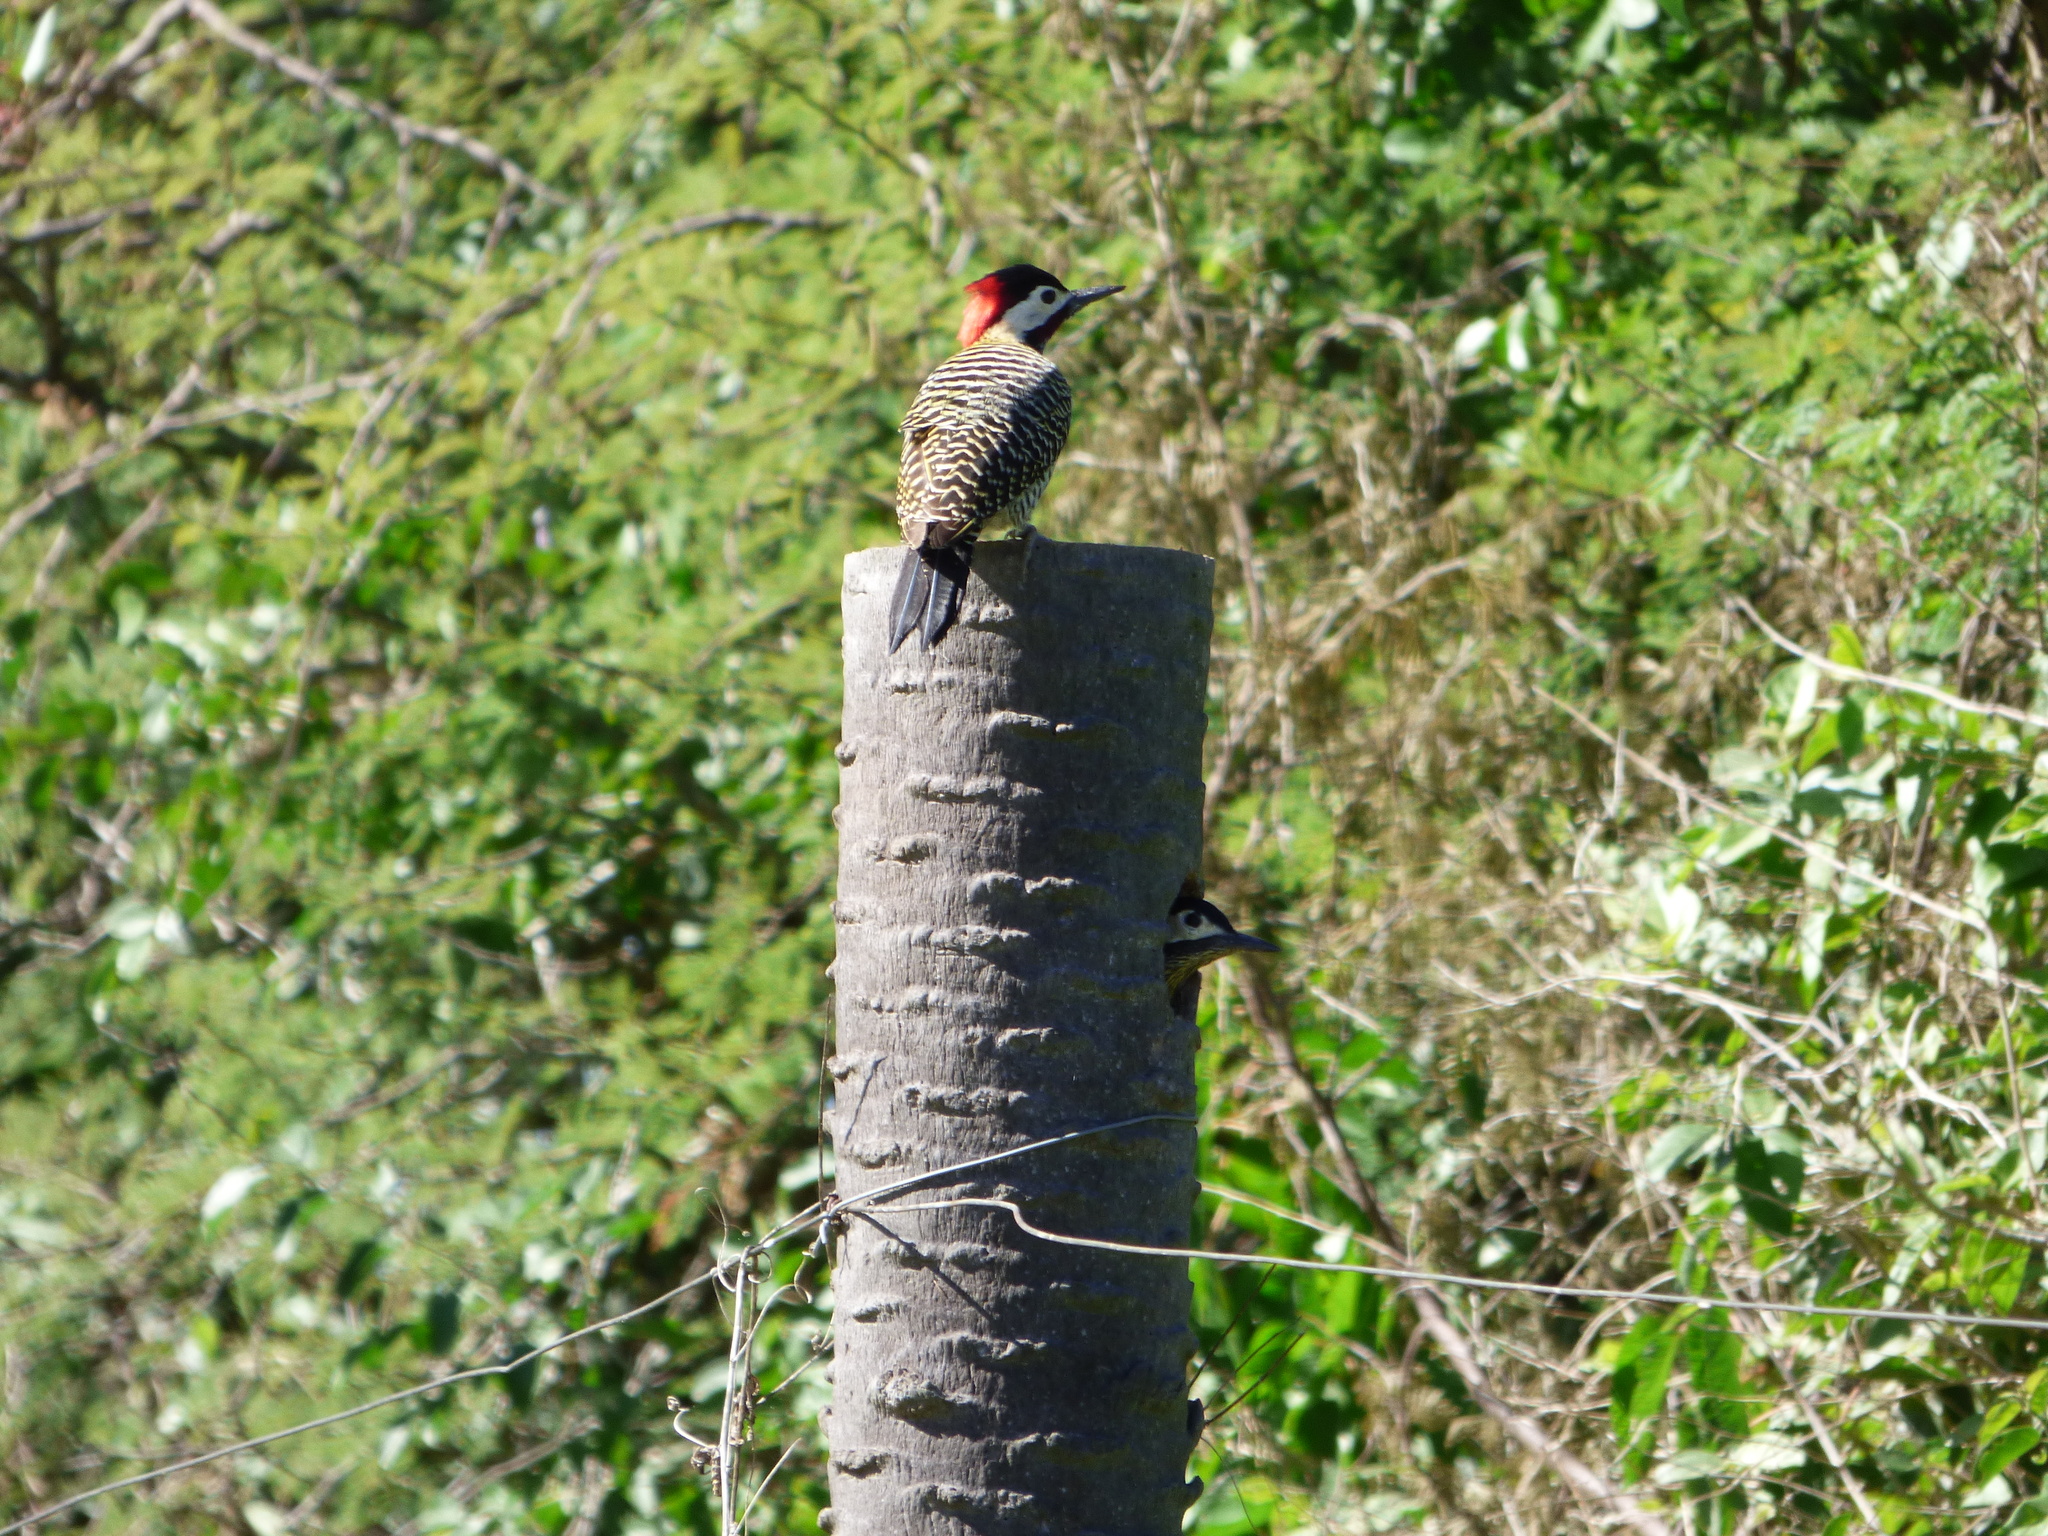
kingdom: Animalia
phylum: Chordata
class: Aves
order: Piciformes
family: Picidae
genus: Colaptes
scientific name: Colaptes melanochloros
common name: Green-barred woodpecker
